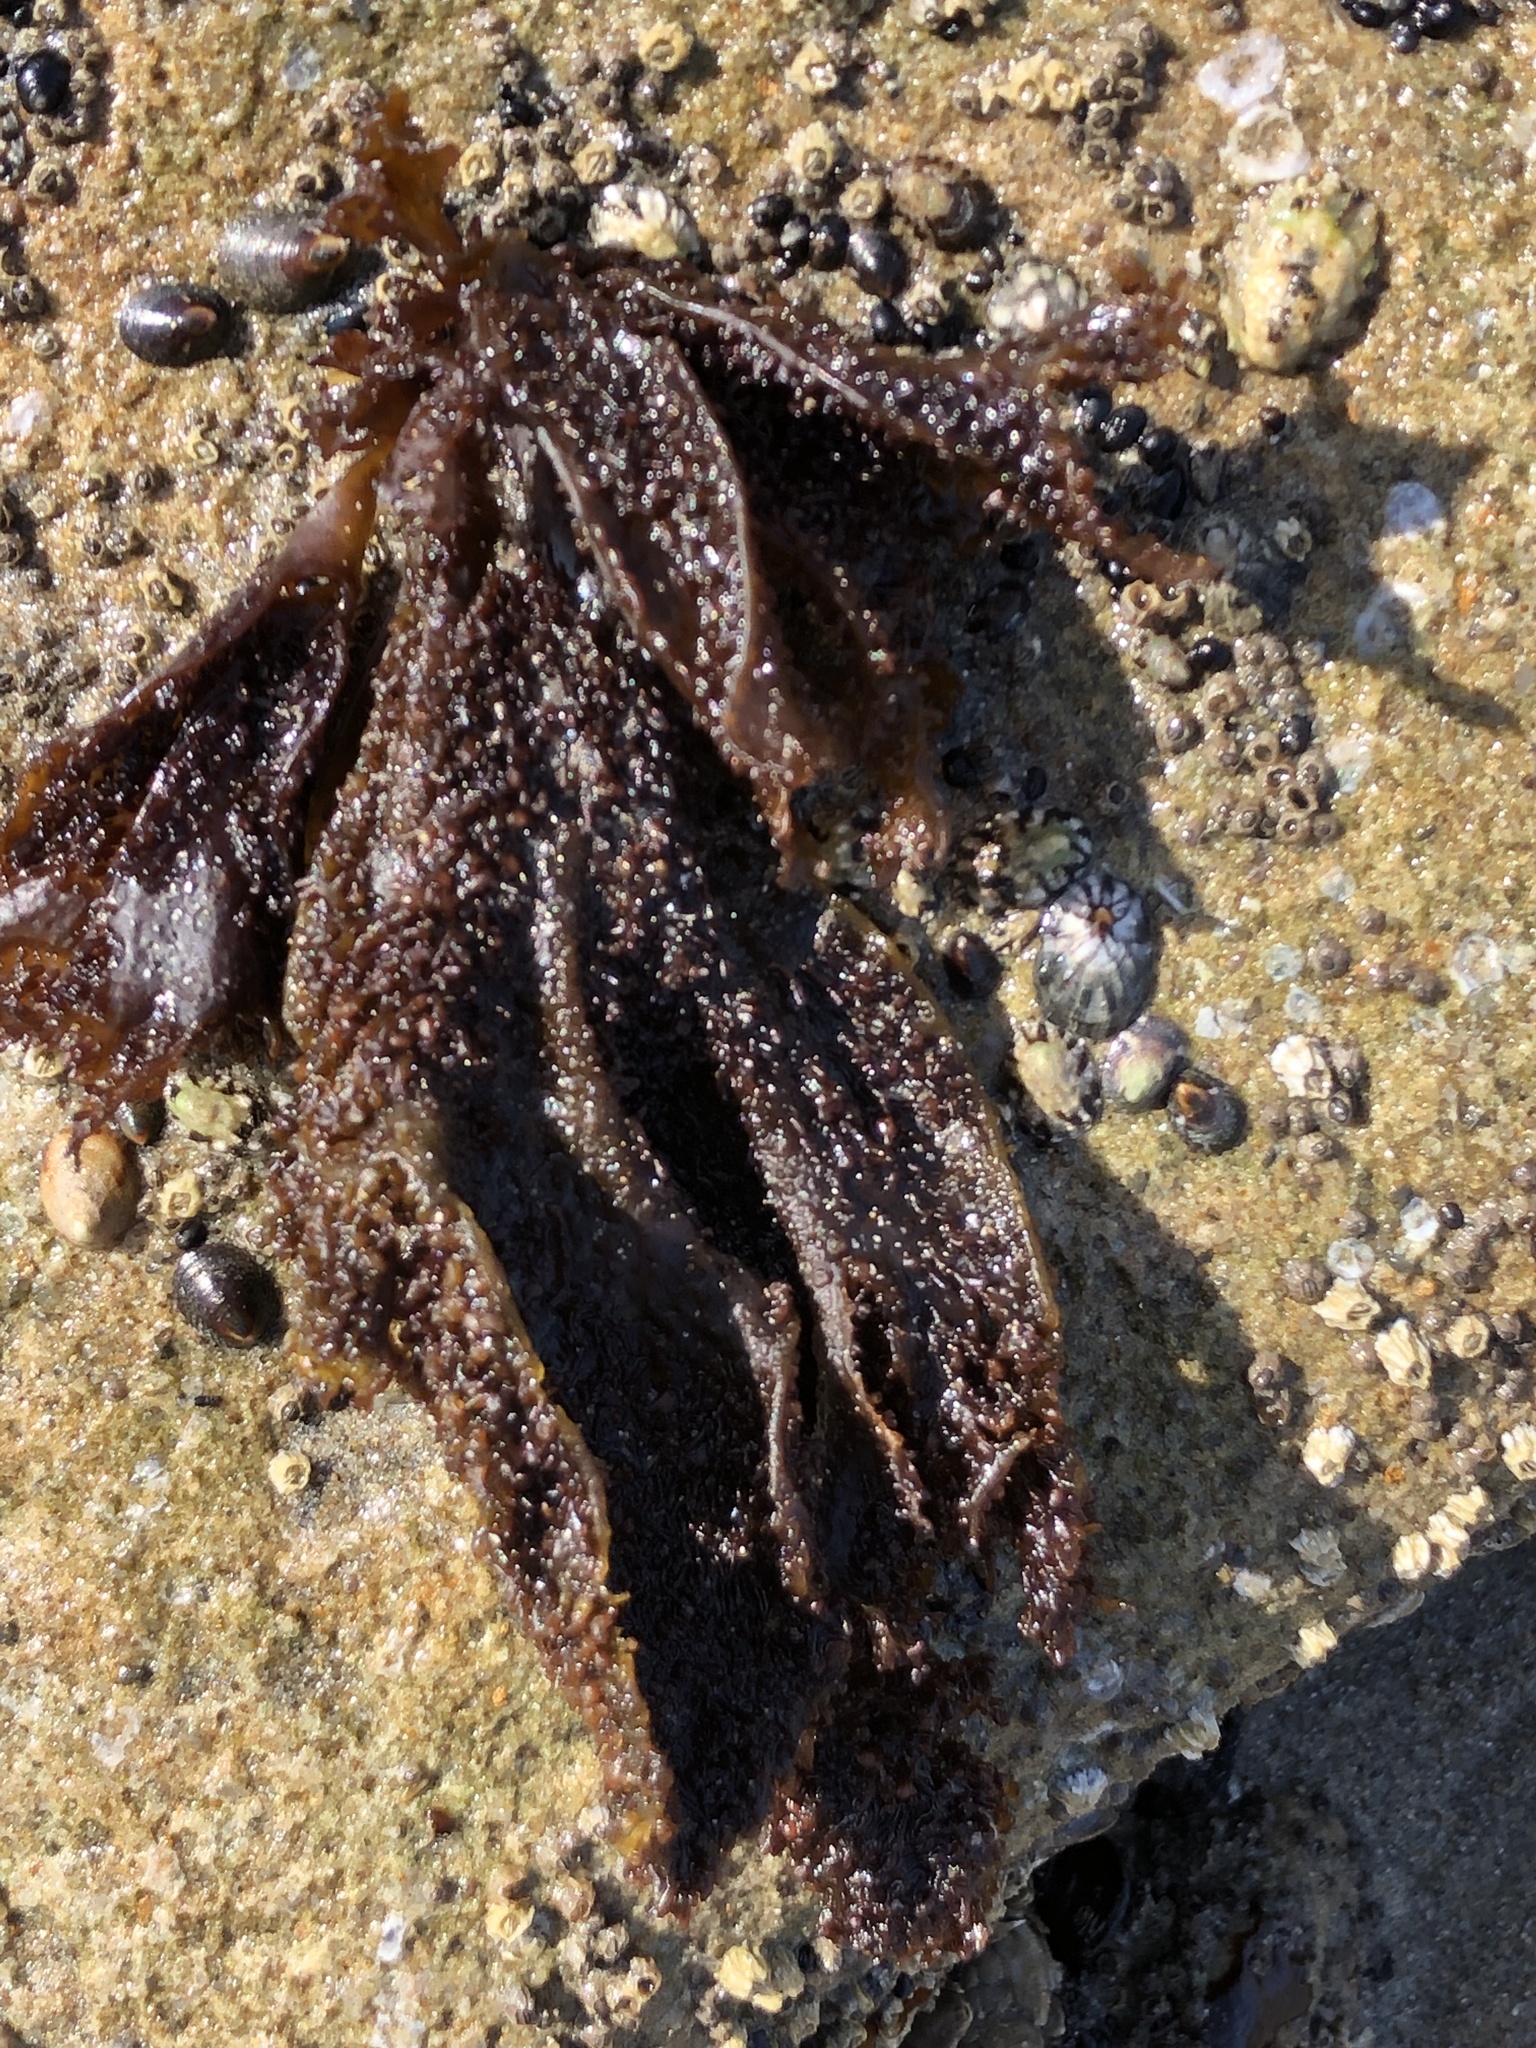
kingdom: Plantae
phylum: Rhodophyta
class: Florideophyceae
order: Gigartinales
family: Phyllophoraceae
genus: Mastocarpus
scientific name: Mastocarpus papillatus
